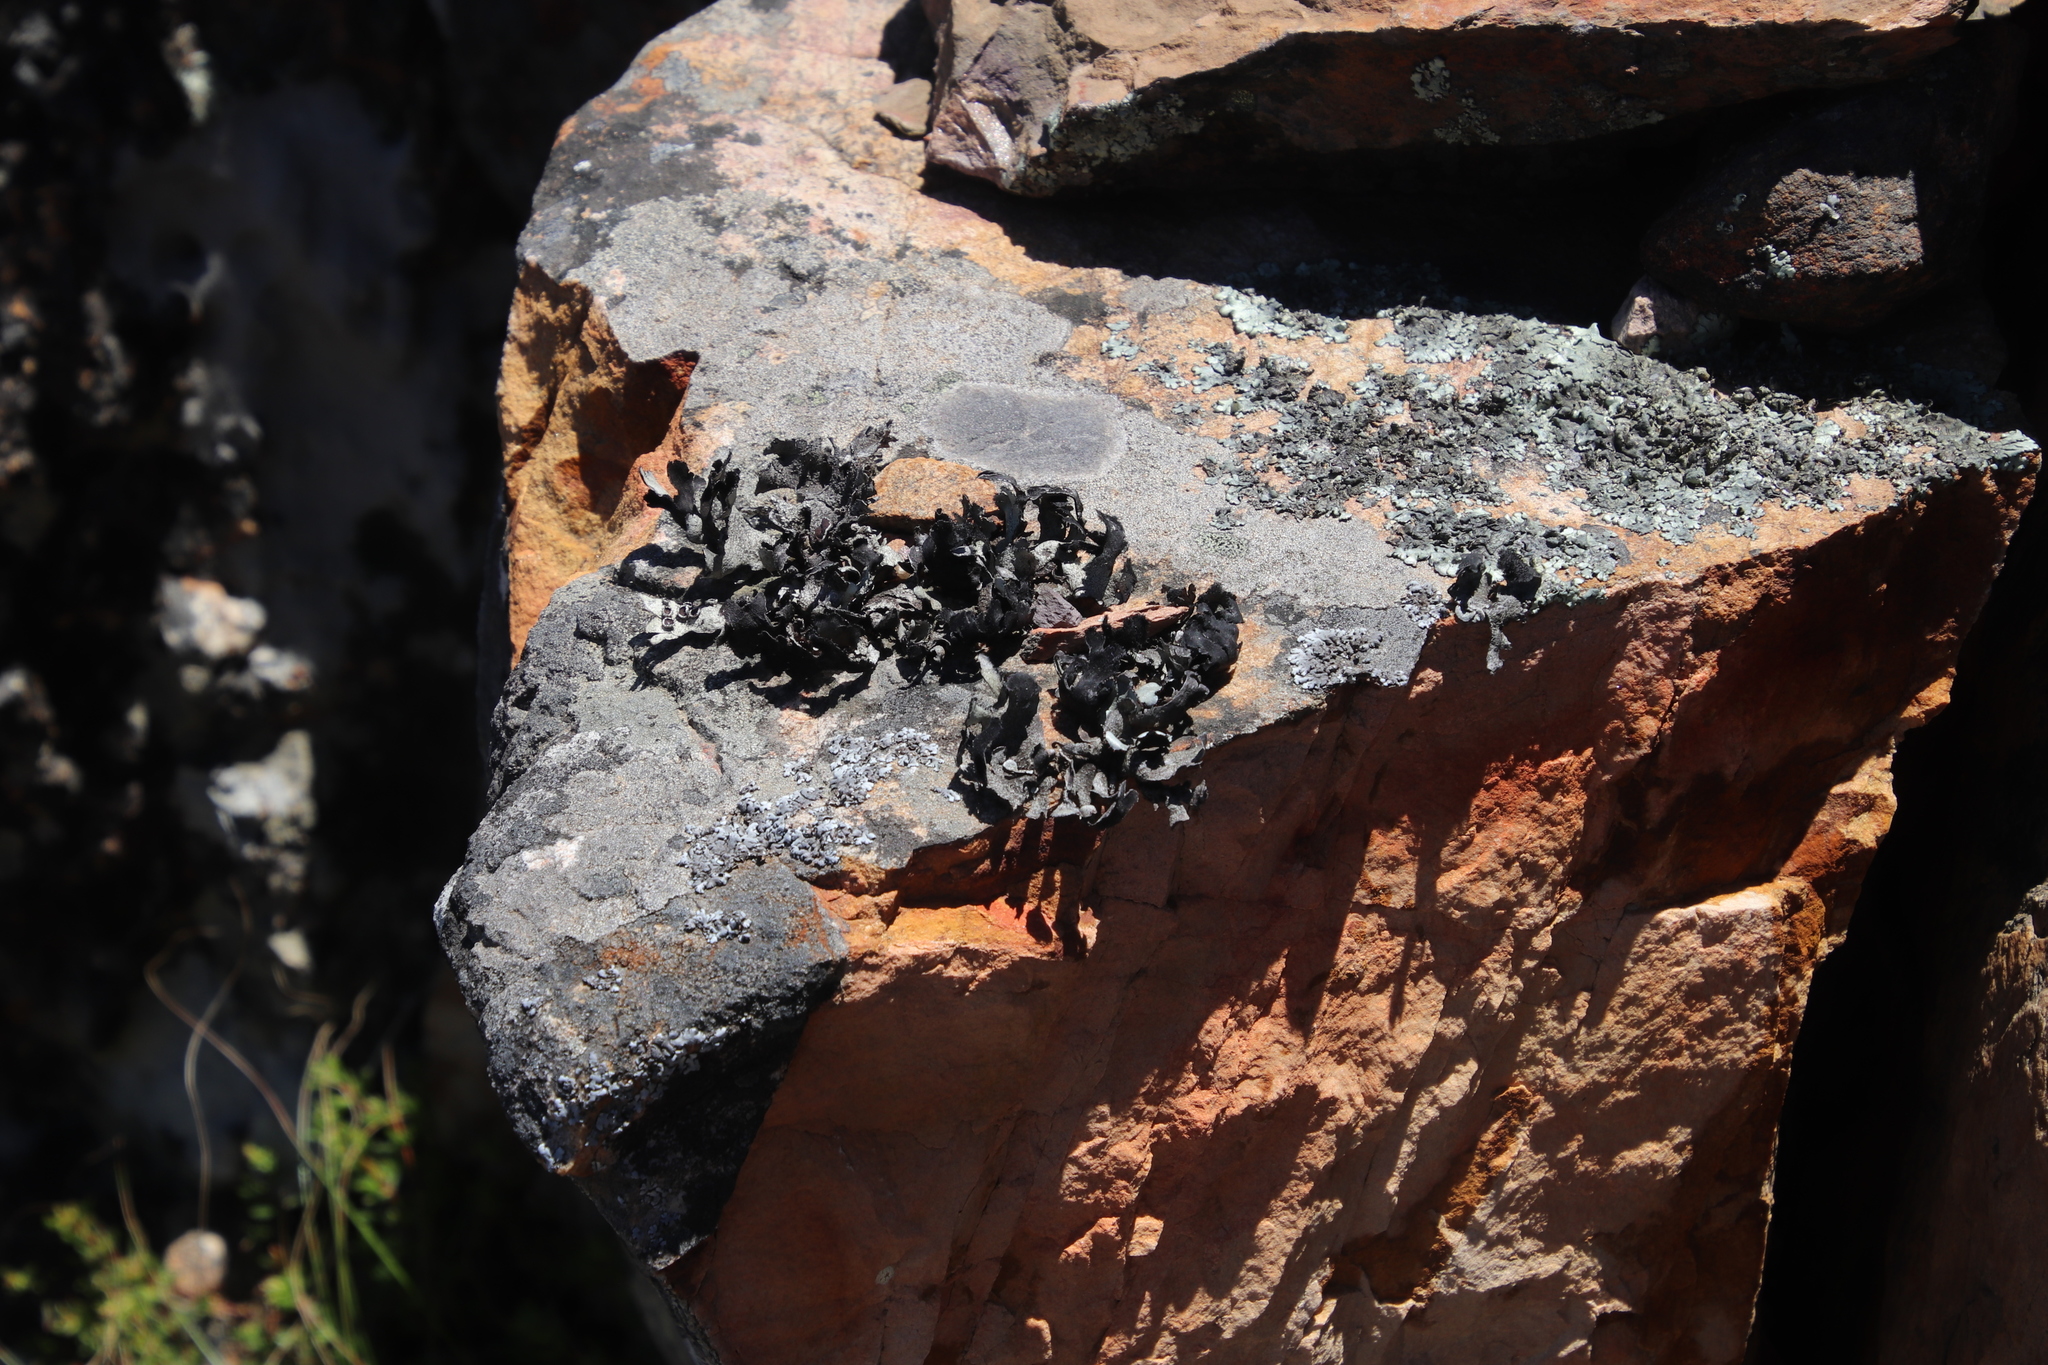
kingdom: Fungi
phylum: Ascomycota
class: Lecanoromycetes
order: Lecanorales
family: Parmeliaceae
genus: Xanthoparmelia
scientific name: Xanthoparmelia hottentotta
